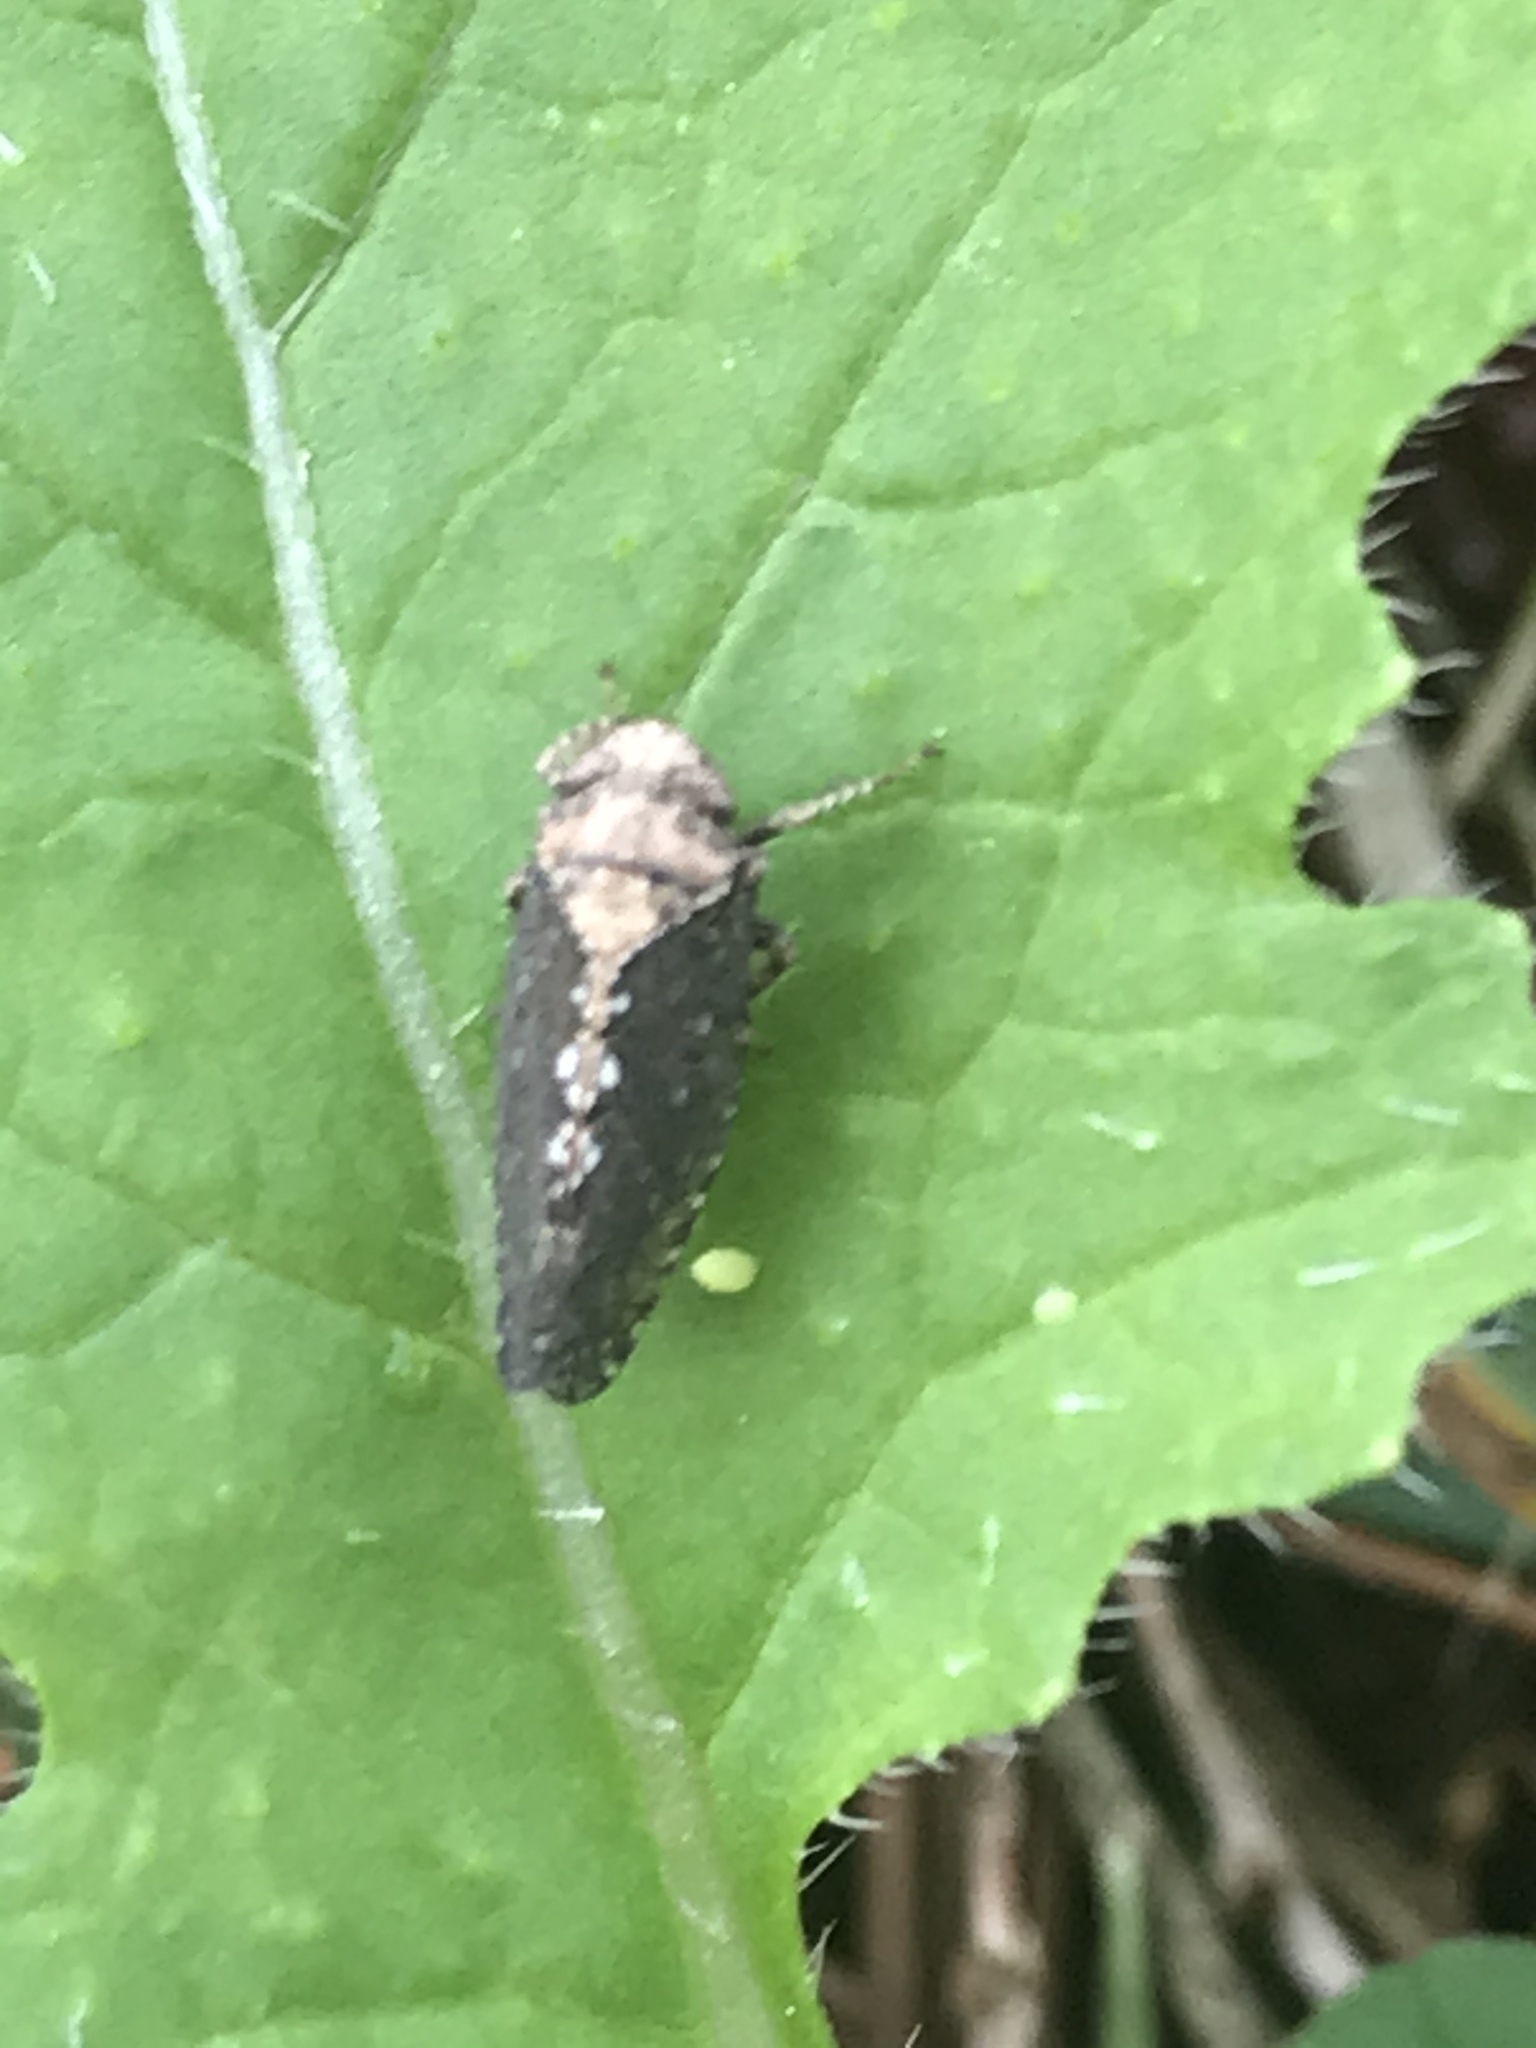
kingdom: Animalia
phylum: Arthropoda
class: Insecta
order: Hemiptera
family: Cicadellidae
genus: Excultanus
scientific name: Excultanus excultus
